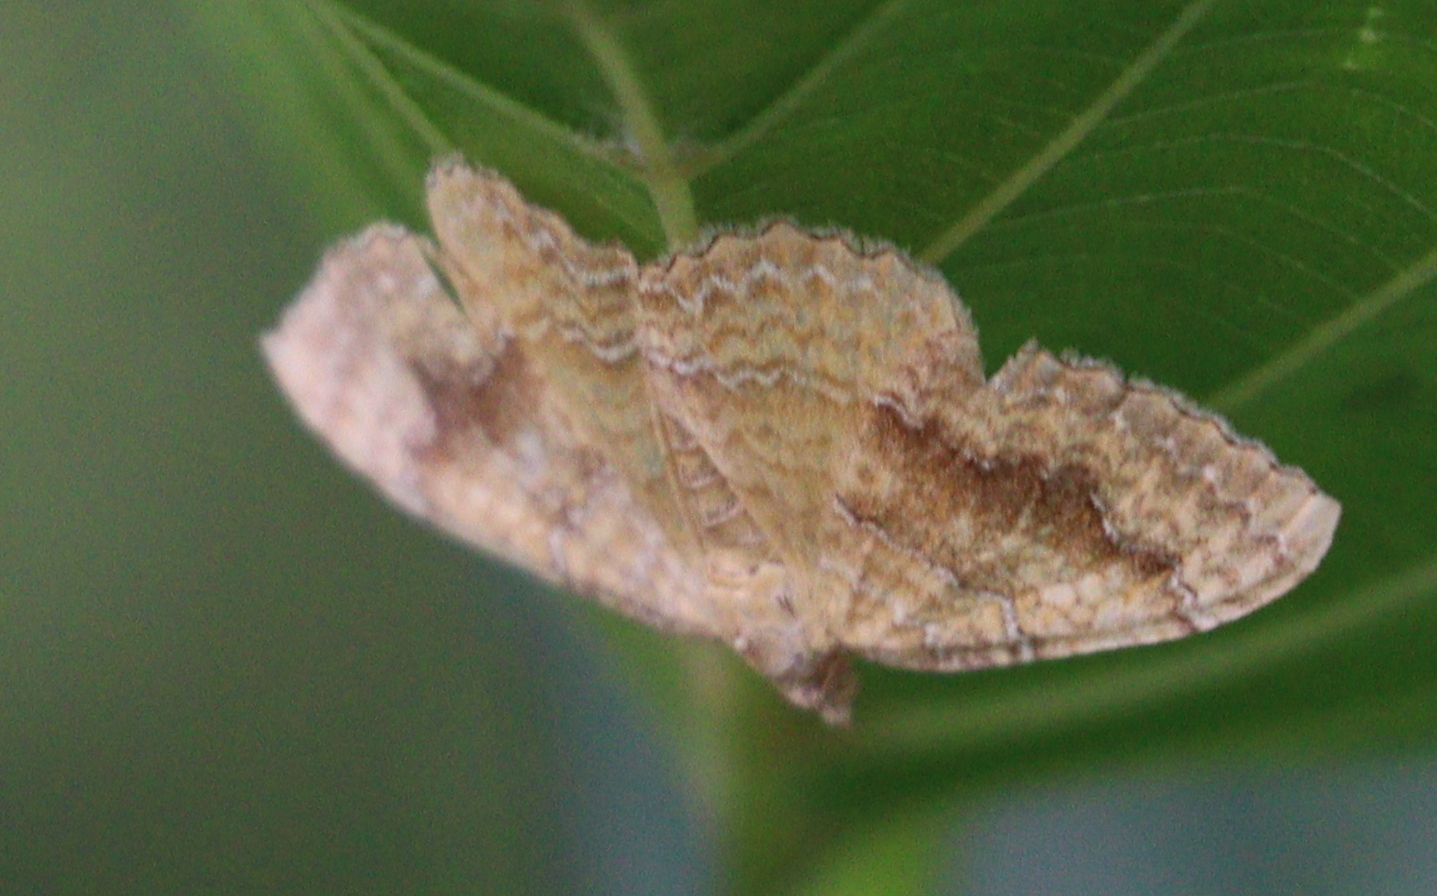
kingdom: Animalia
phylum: Arthropoda
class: Insecta
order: Lepidoptera
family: Geometridae
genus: Camptogramma
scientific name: Camptogramma bilineata
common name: Yellow shell
